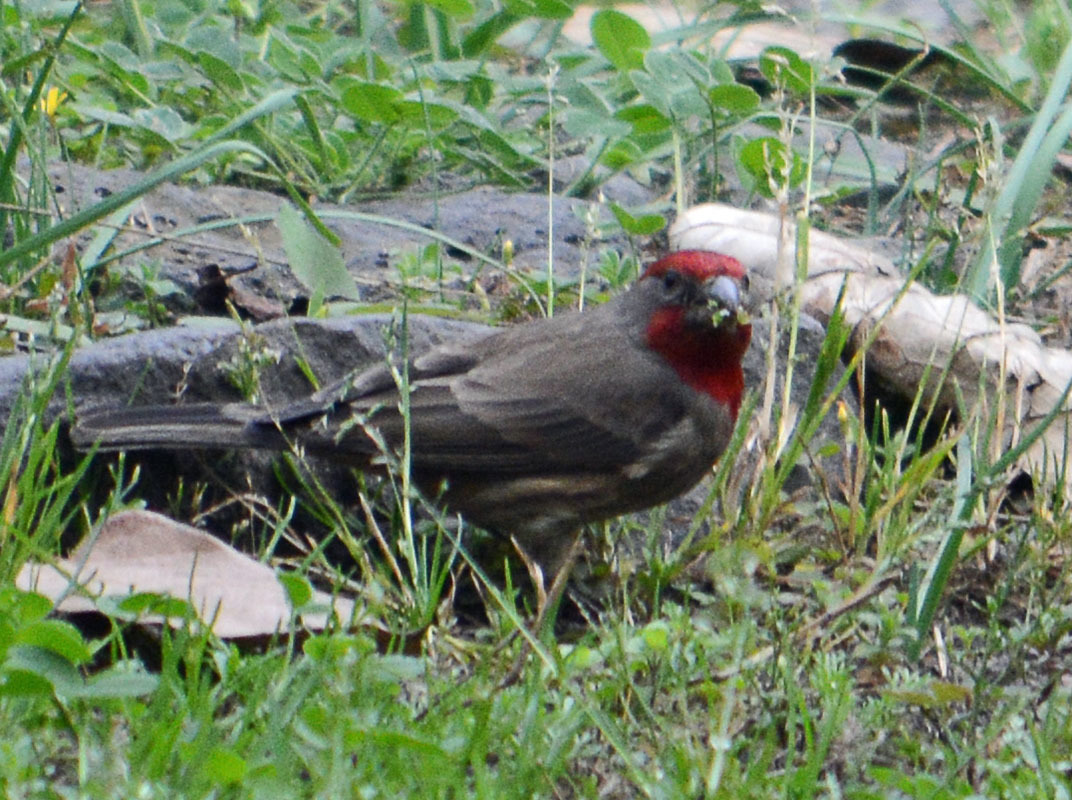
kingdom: Animalia
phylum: Chordata
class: Aves
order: Passeriformes
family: Fringillidae
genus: Haemorhous
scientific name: Haemorhous mexicanus
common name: House finch
